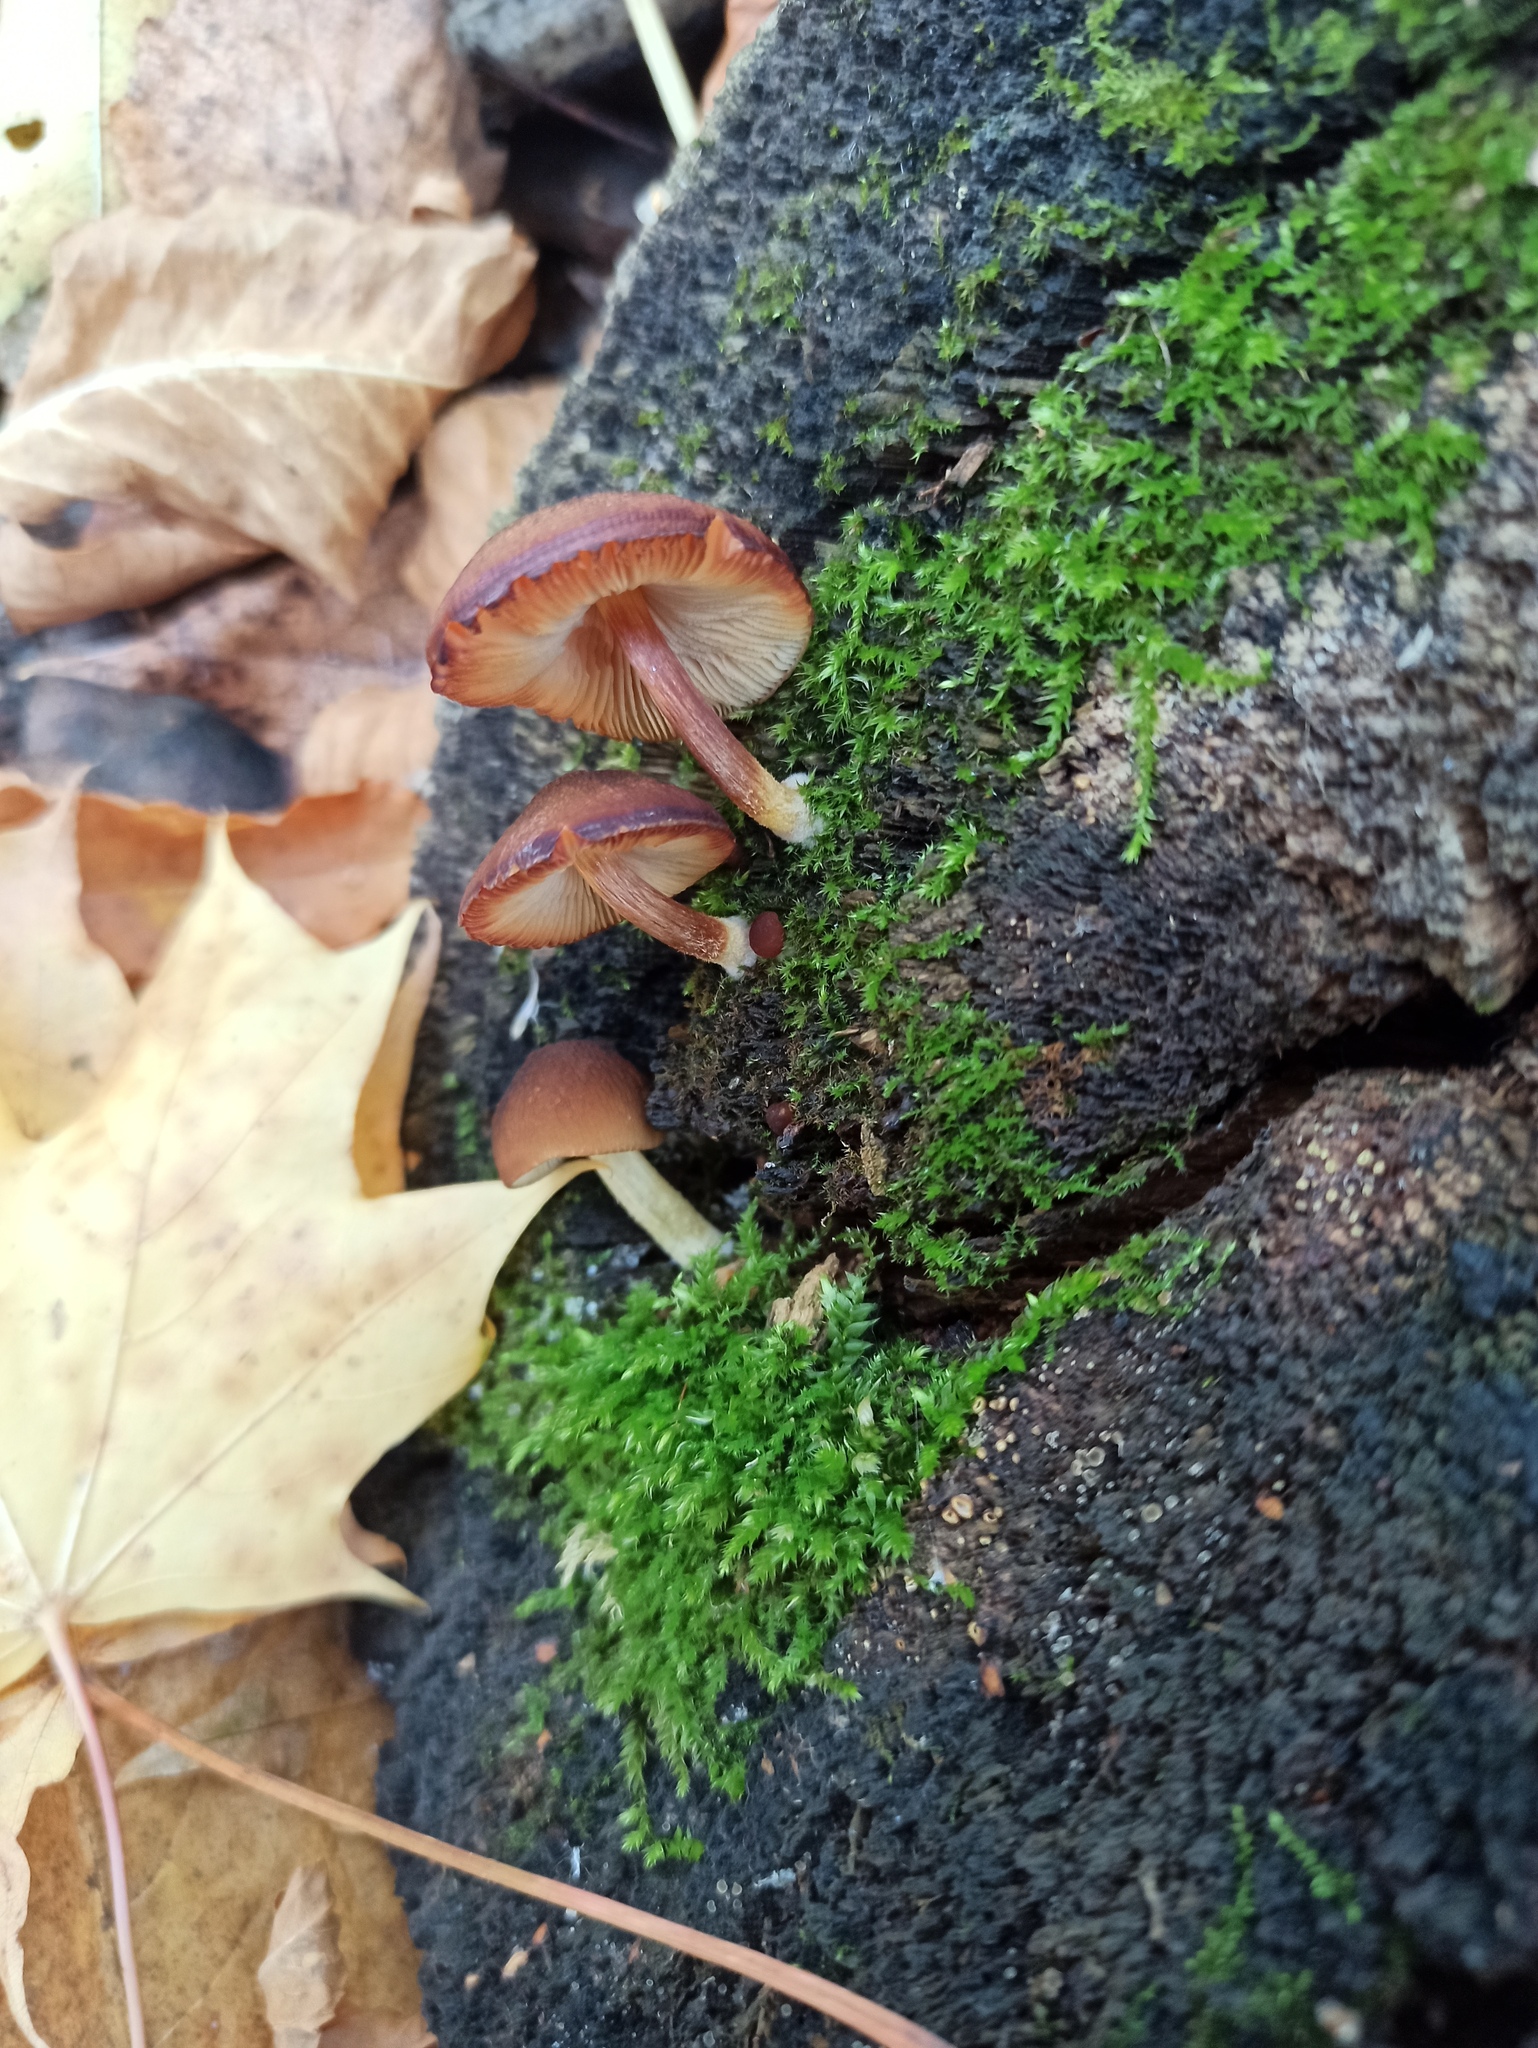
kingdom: Fungi
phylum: Basidiomycota
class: Agaricomycetes
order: Agaricales
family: Pluteaceae
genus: Pluteus
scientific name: Pluteus romellii
